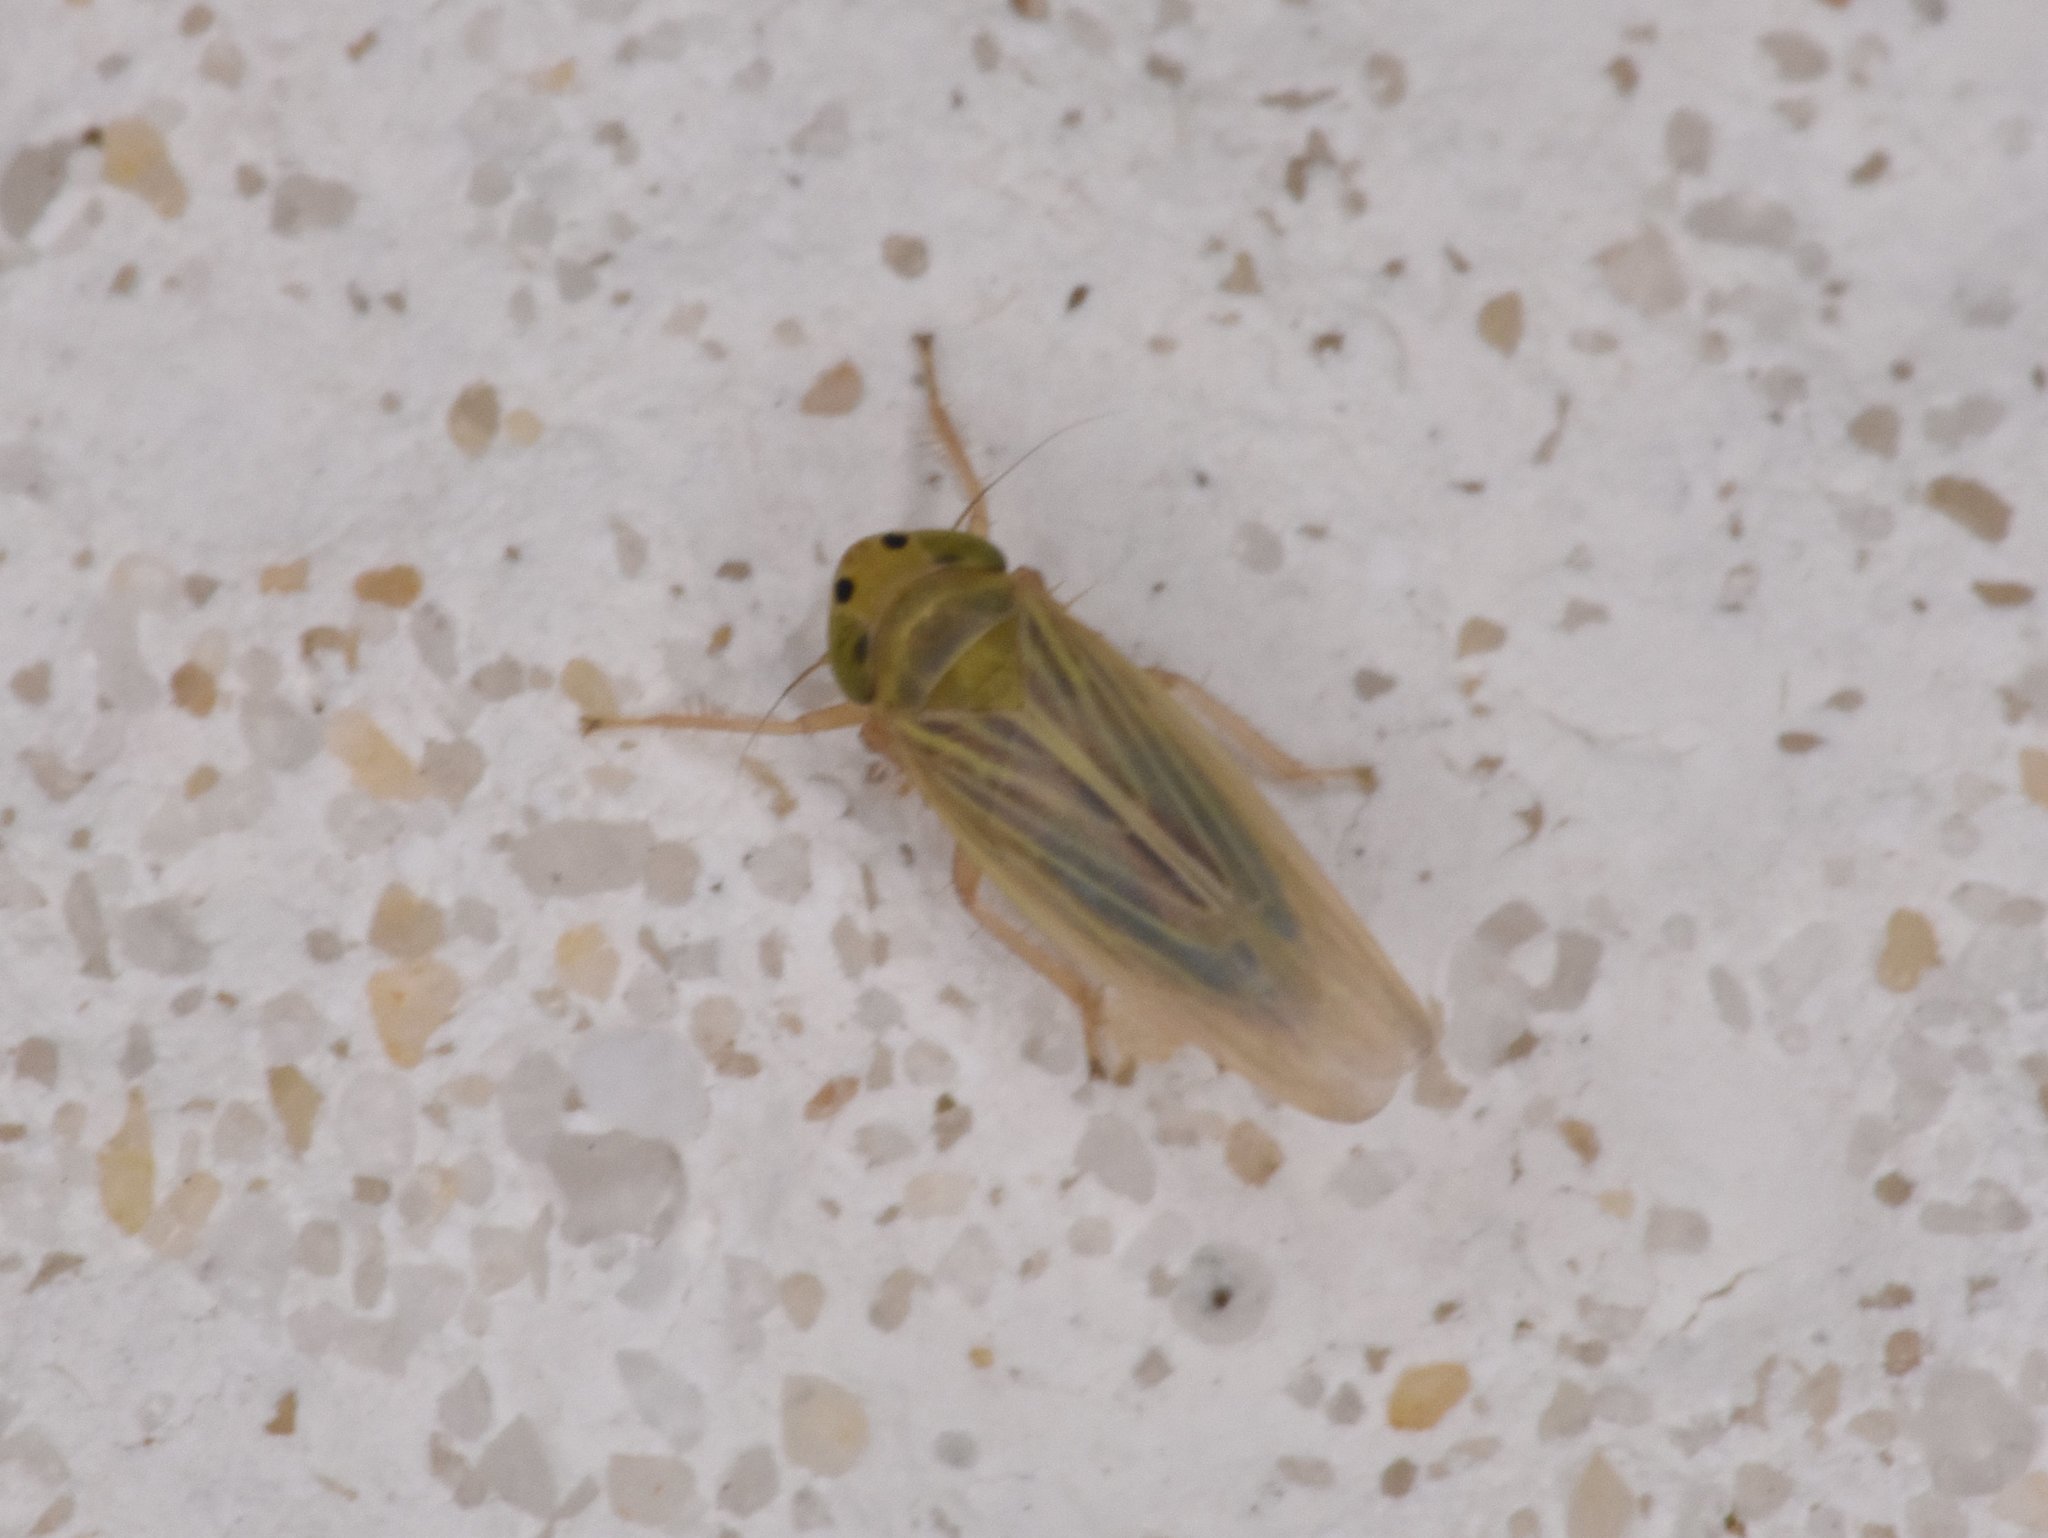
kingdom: Animalia
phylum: Arthropoda
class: Insecta
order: Hemiptera
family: Cicadellidae
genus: Graminella
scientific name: Graminella cognita
